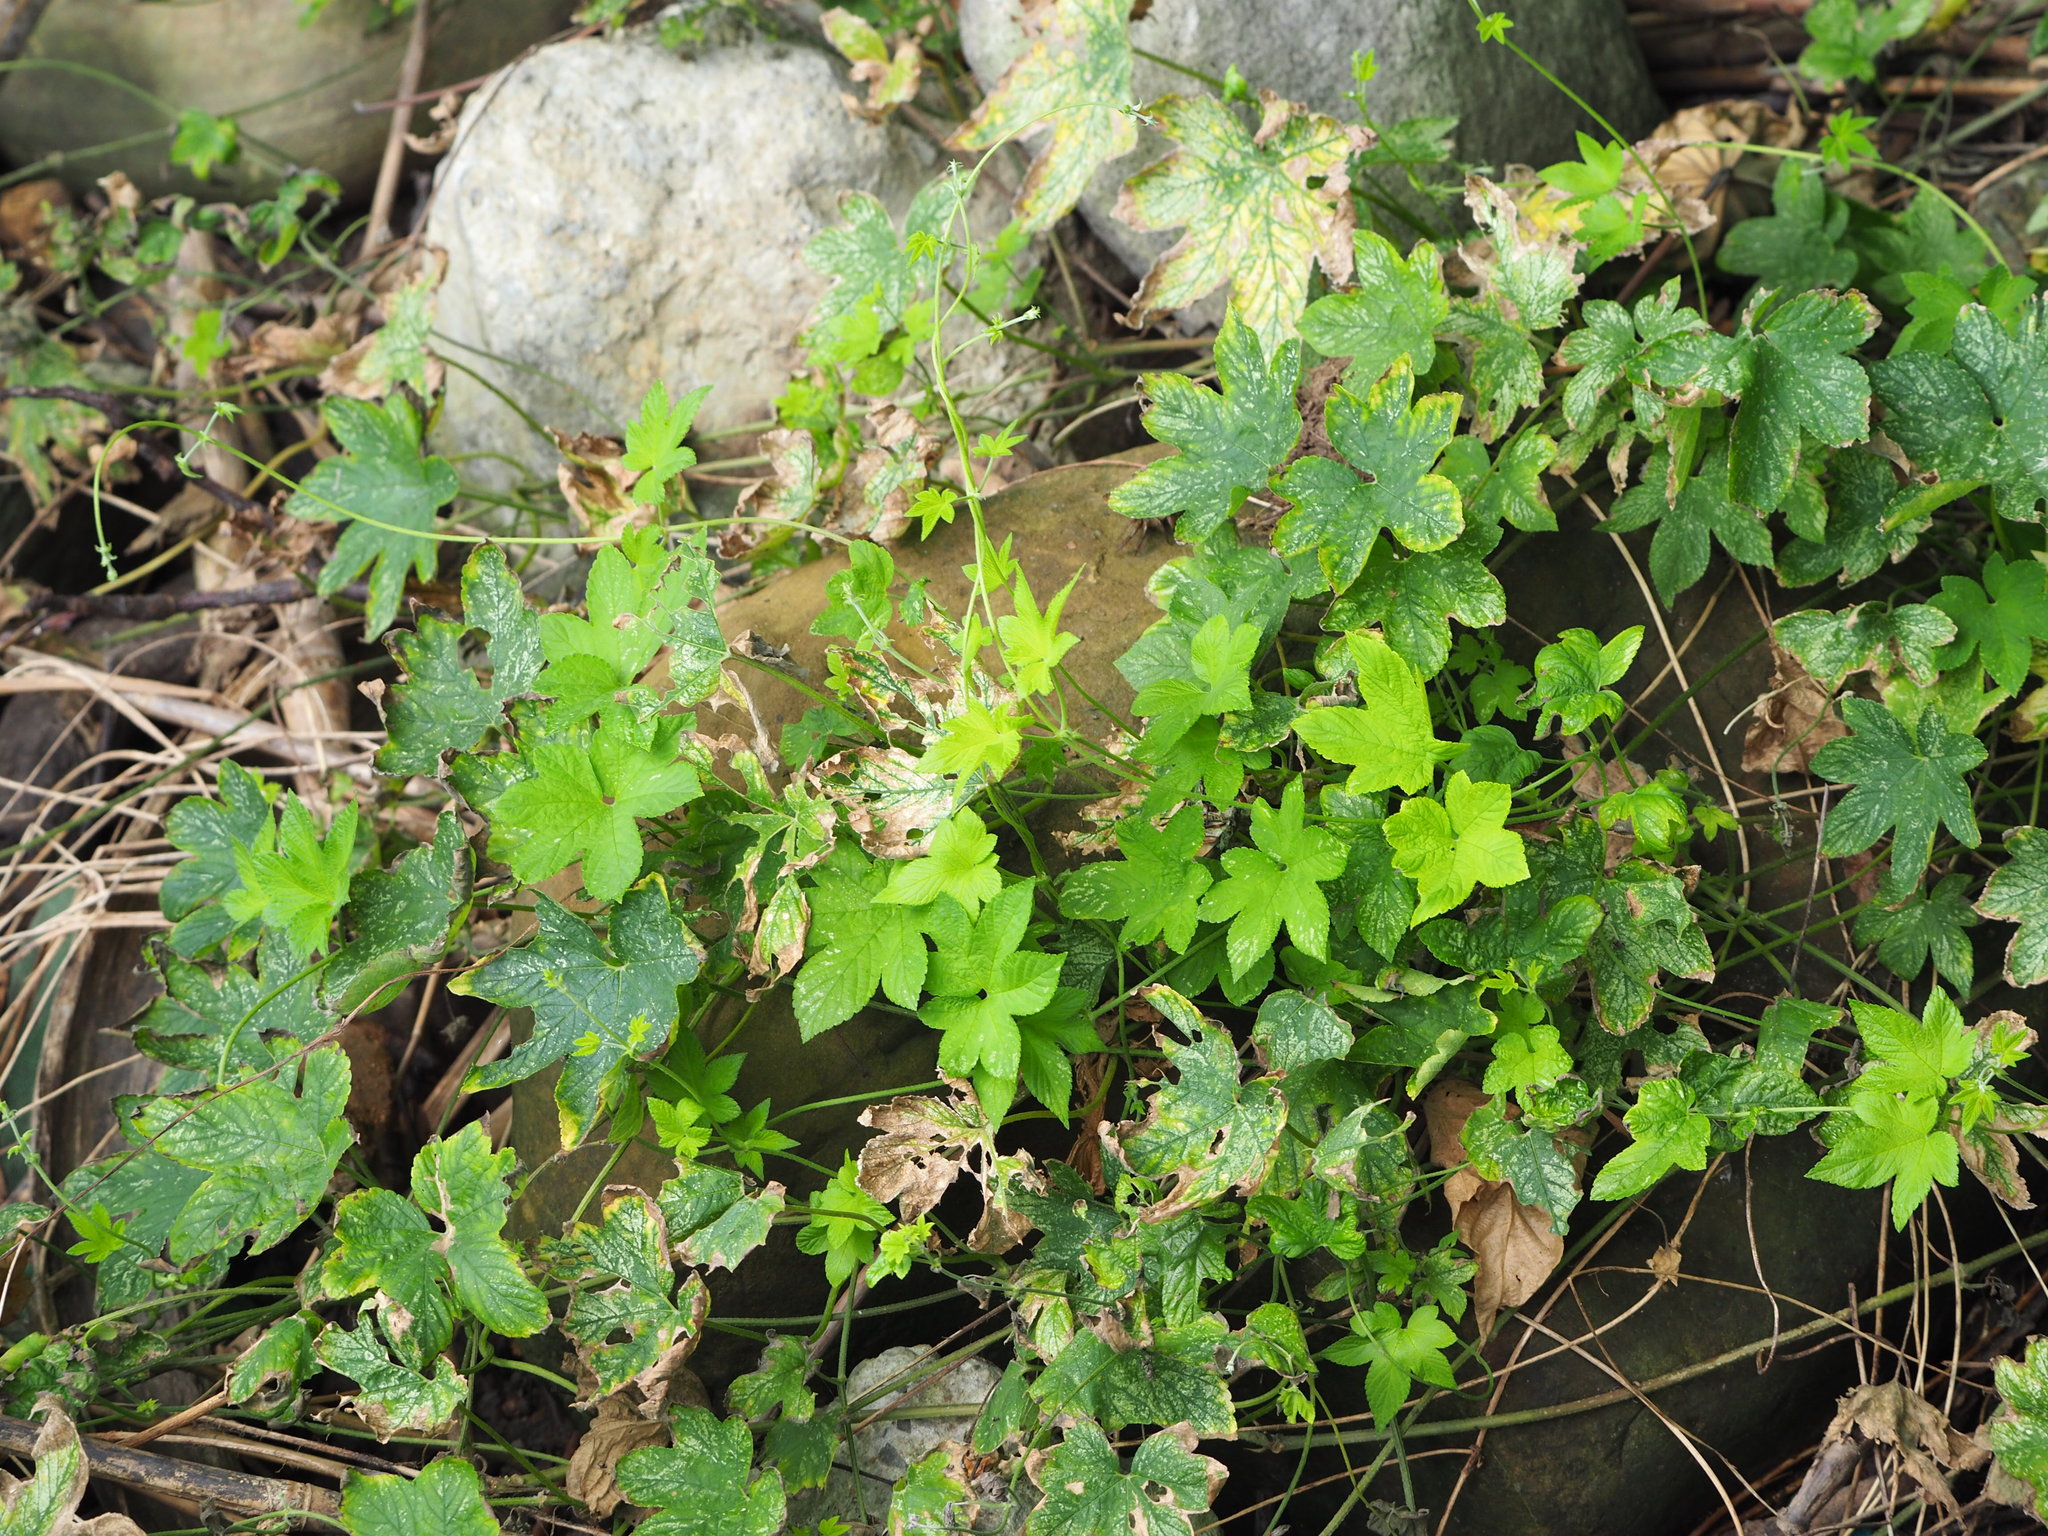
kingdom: Plantae
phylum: Tracheophyta
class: Magnoliopsida
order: Rosales
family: Cannabaceae
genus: Humulus
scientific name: Humulus scandens
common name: Japanese hop
